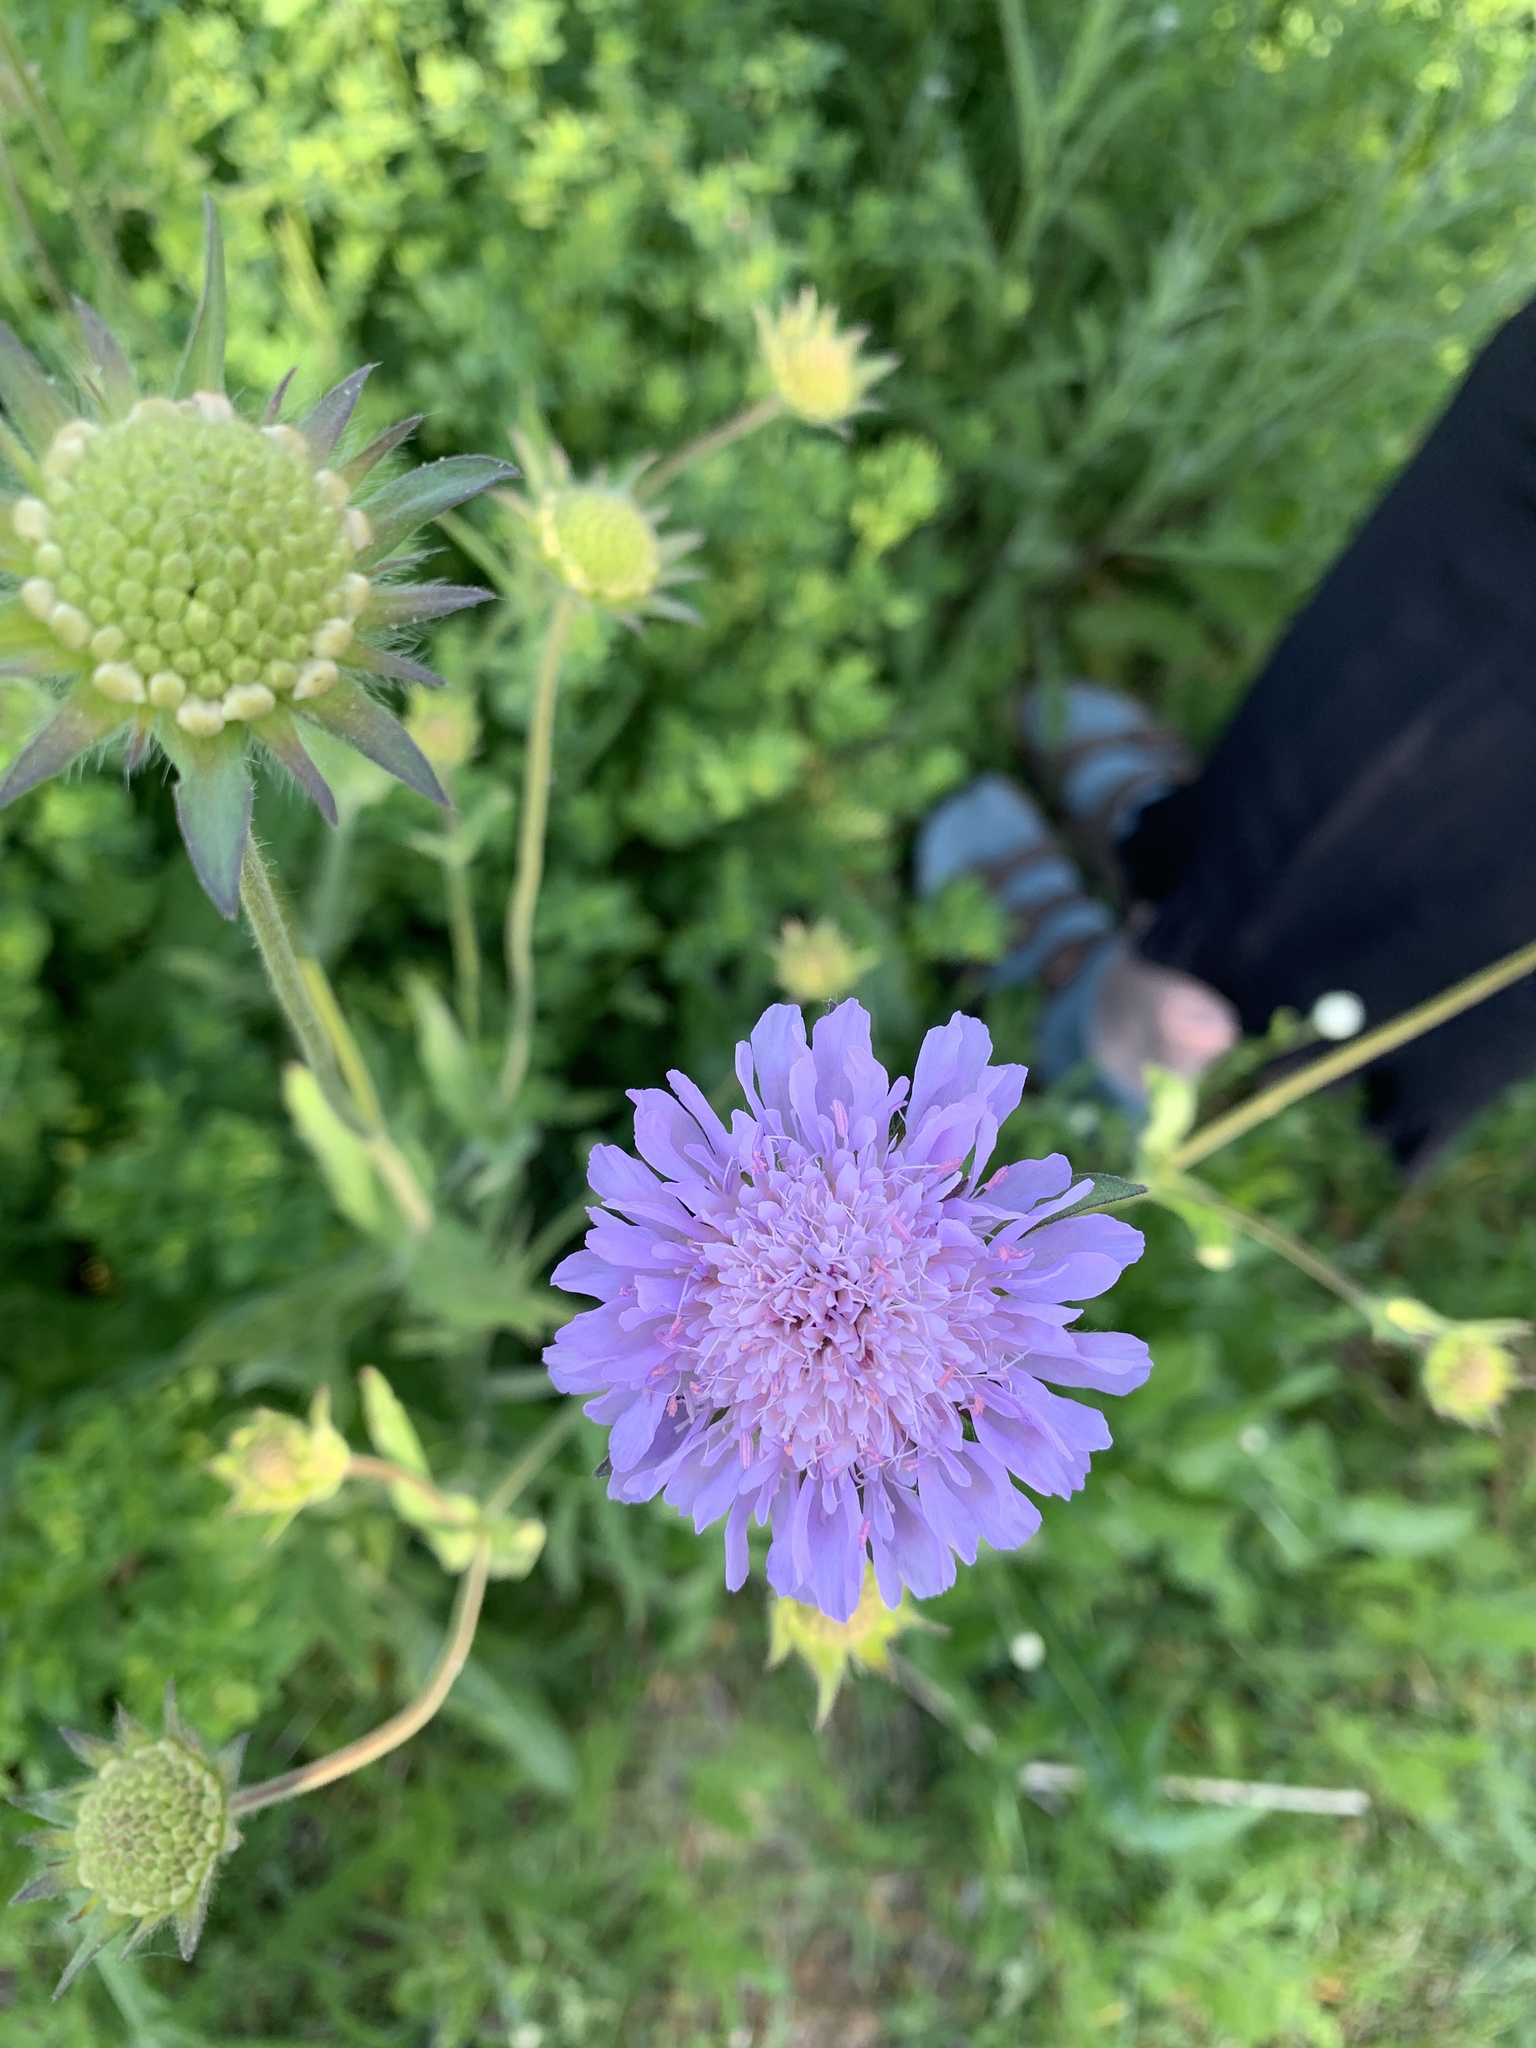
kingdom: Plantae
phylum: Tracheophyta
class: Magnoliopsida
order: Dipsacales
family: Caprifoliaceae
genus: Knautia
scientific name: Knautia arvensis
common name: Field scabiosa
